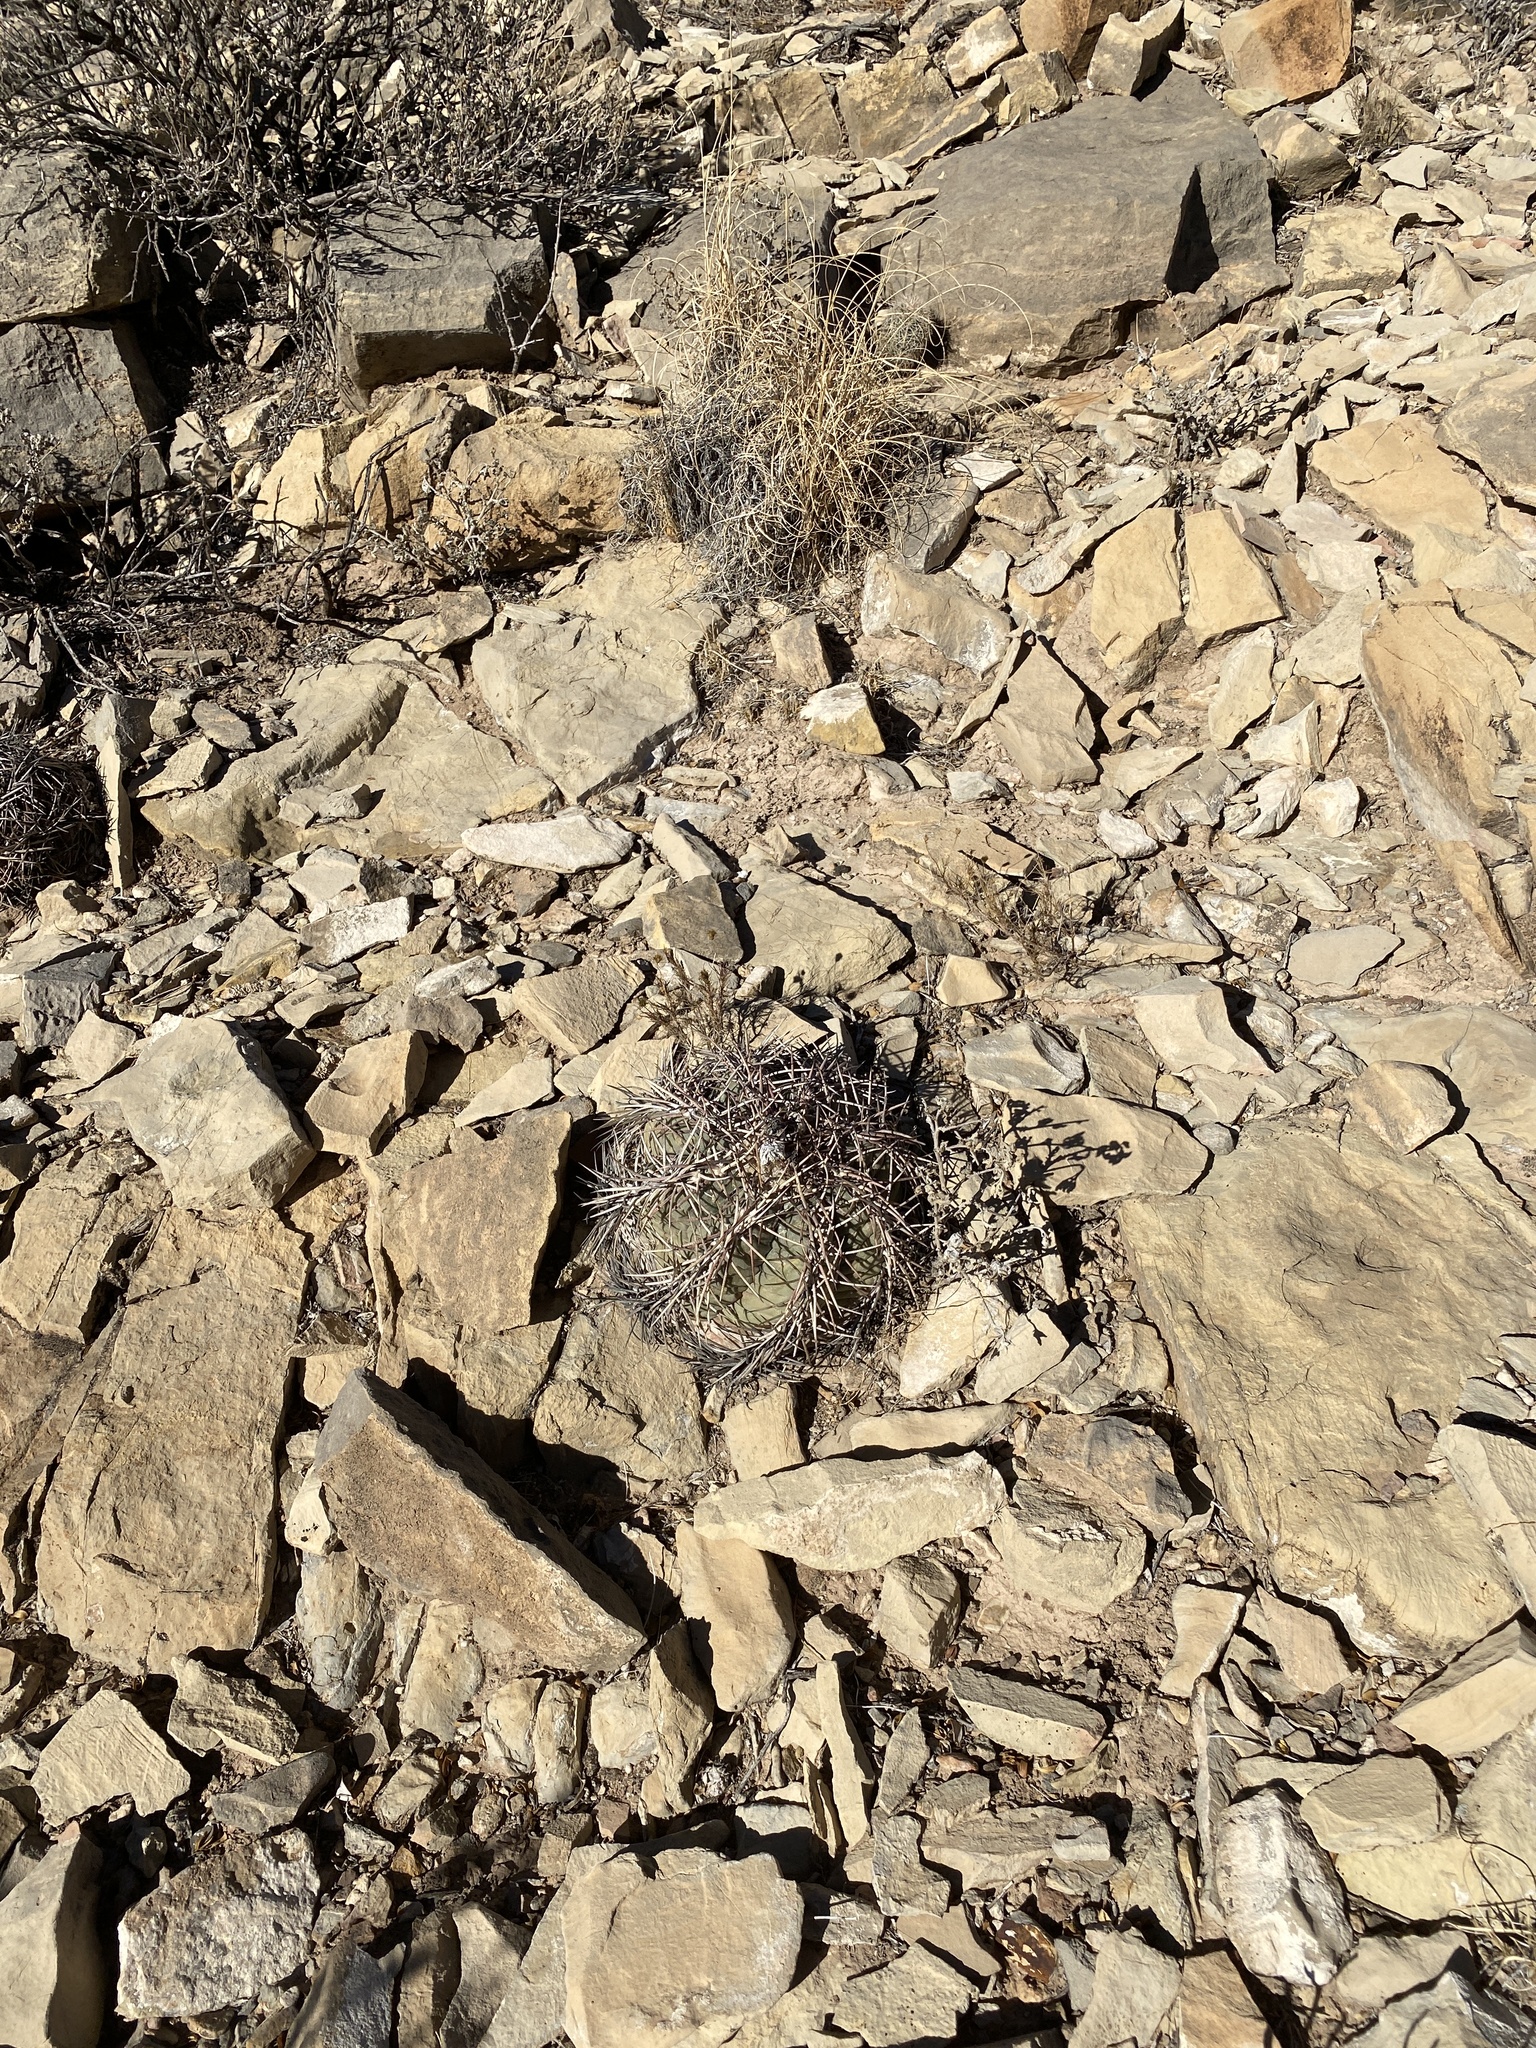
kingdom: Plantae
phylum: Tracheophyta
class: Magnoliopsida
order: Caryophyllales
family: Cactaceae
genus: Echinocactus
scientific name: Echinocactus horizonthalonius
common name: Devilshead
